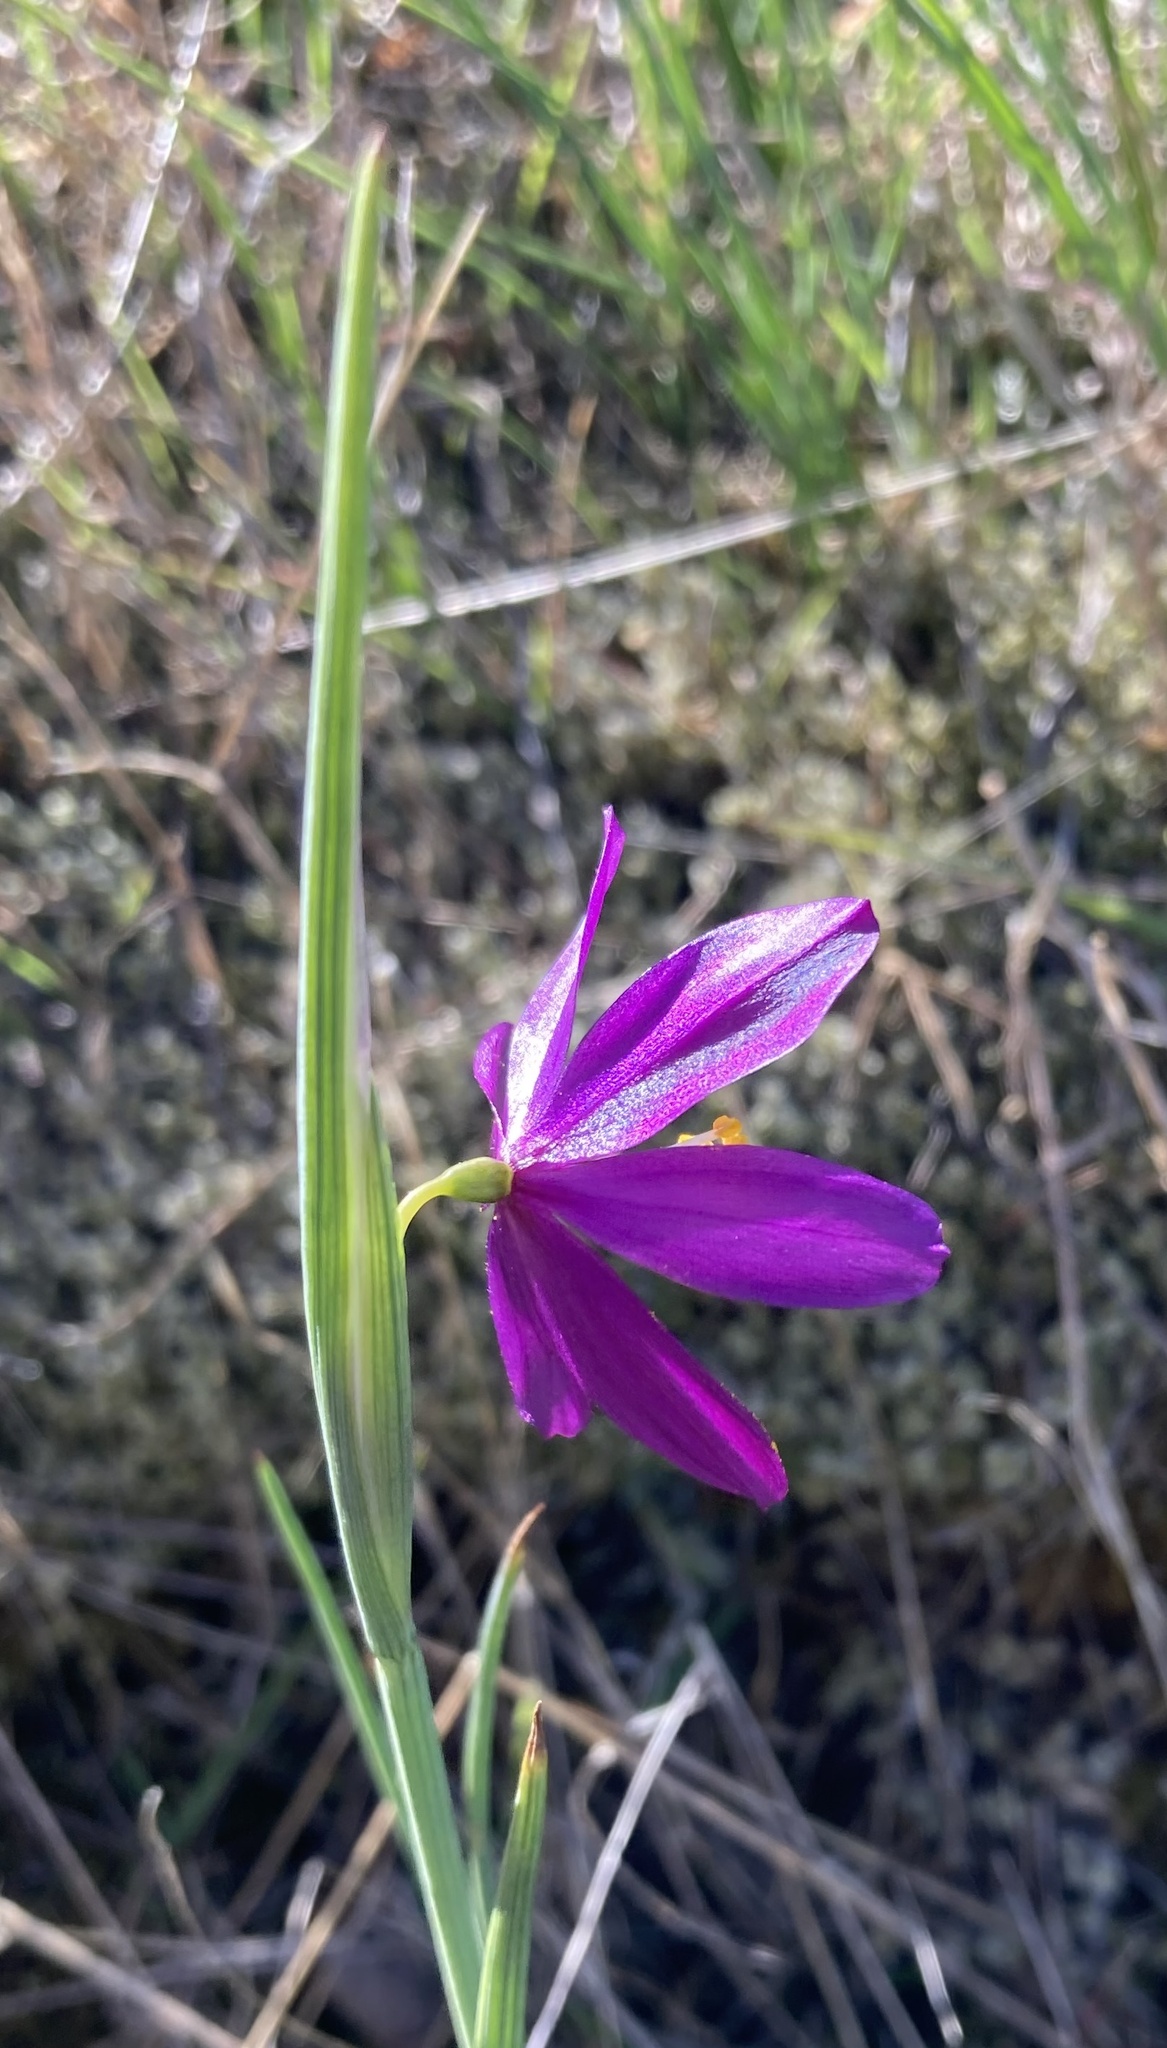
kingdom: Plantae
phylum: Tracheophyta
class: Liliopsida
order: Asparagales
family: Iridaceae
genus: Olsynium
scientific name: Olsynium douglasii
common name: Douglas' grasswidow
